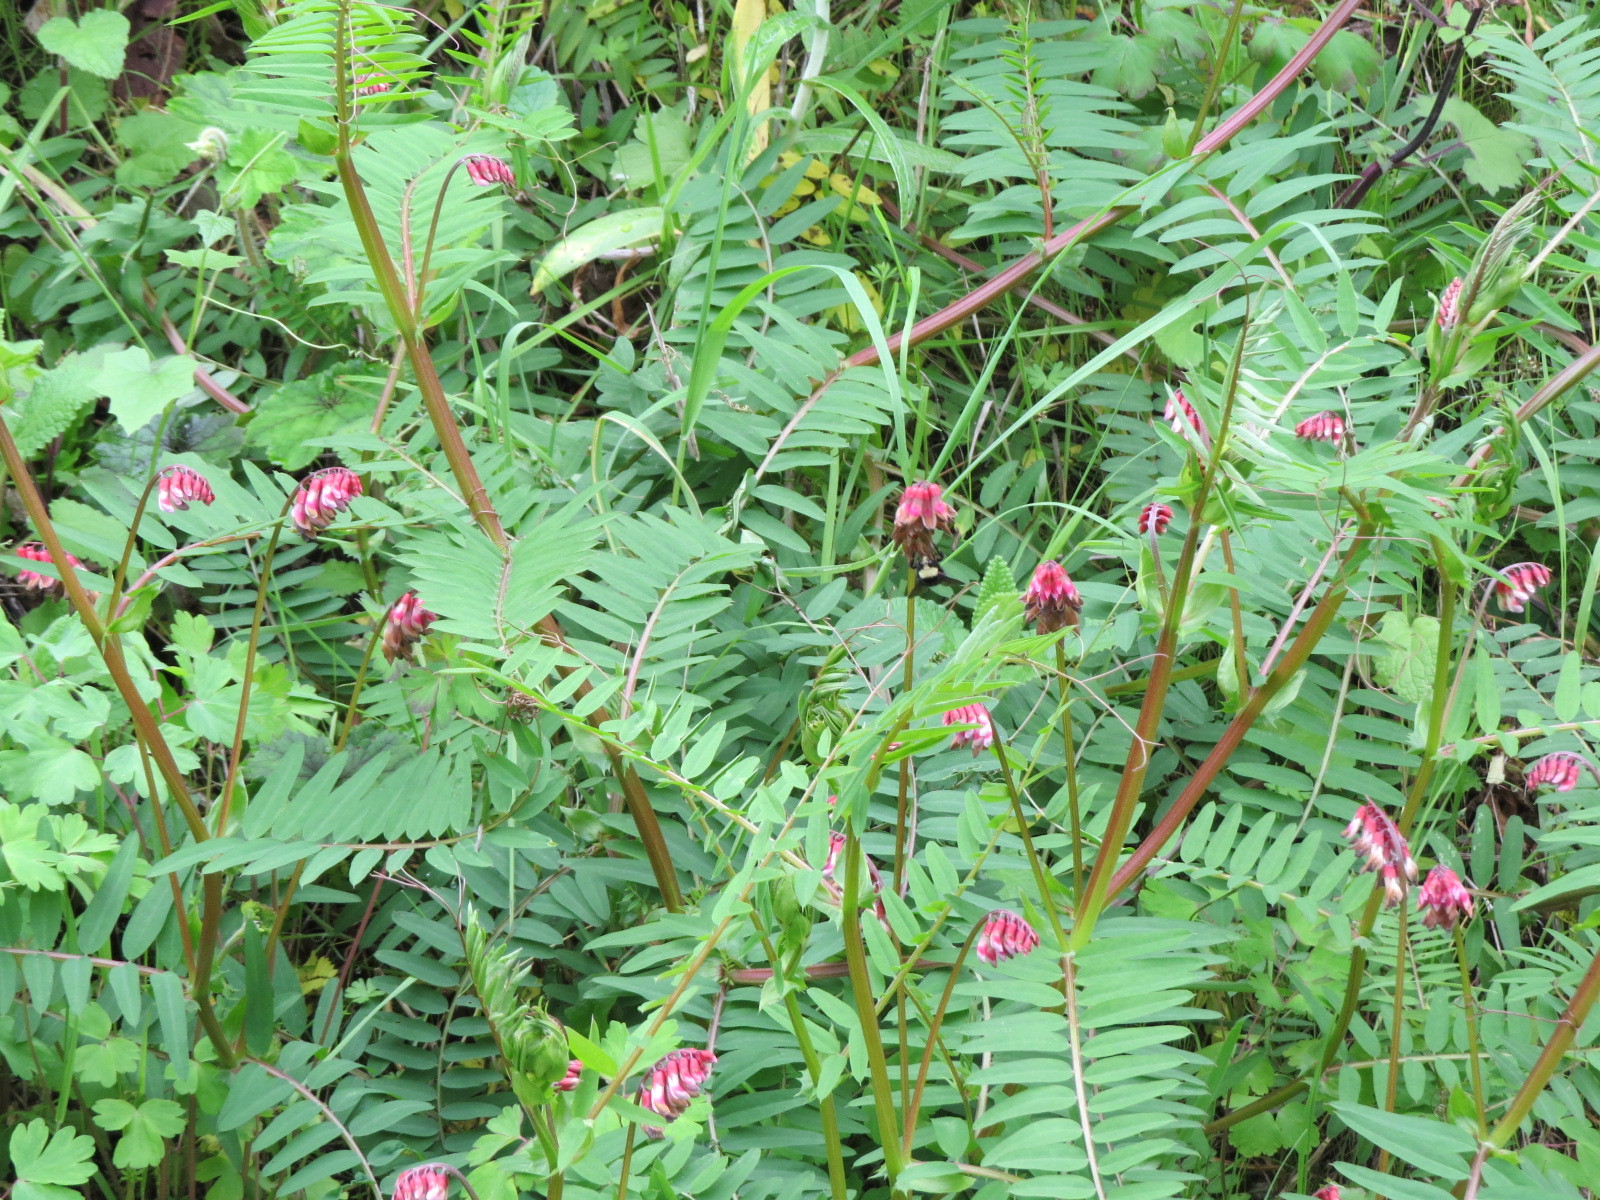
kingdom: Plantae
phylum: Tracheophyta
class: Magnoliopsida
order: Fabales
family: Fabaceae
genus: Vicia
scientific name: Vicia
